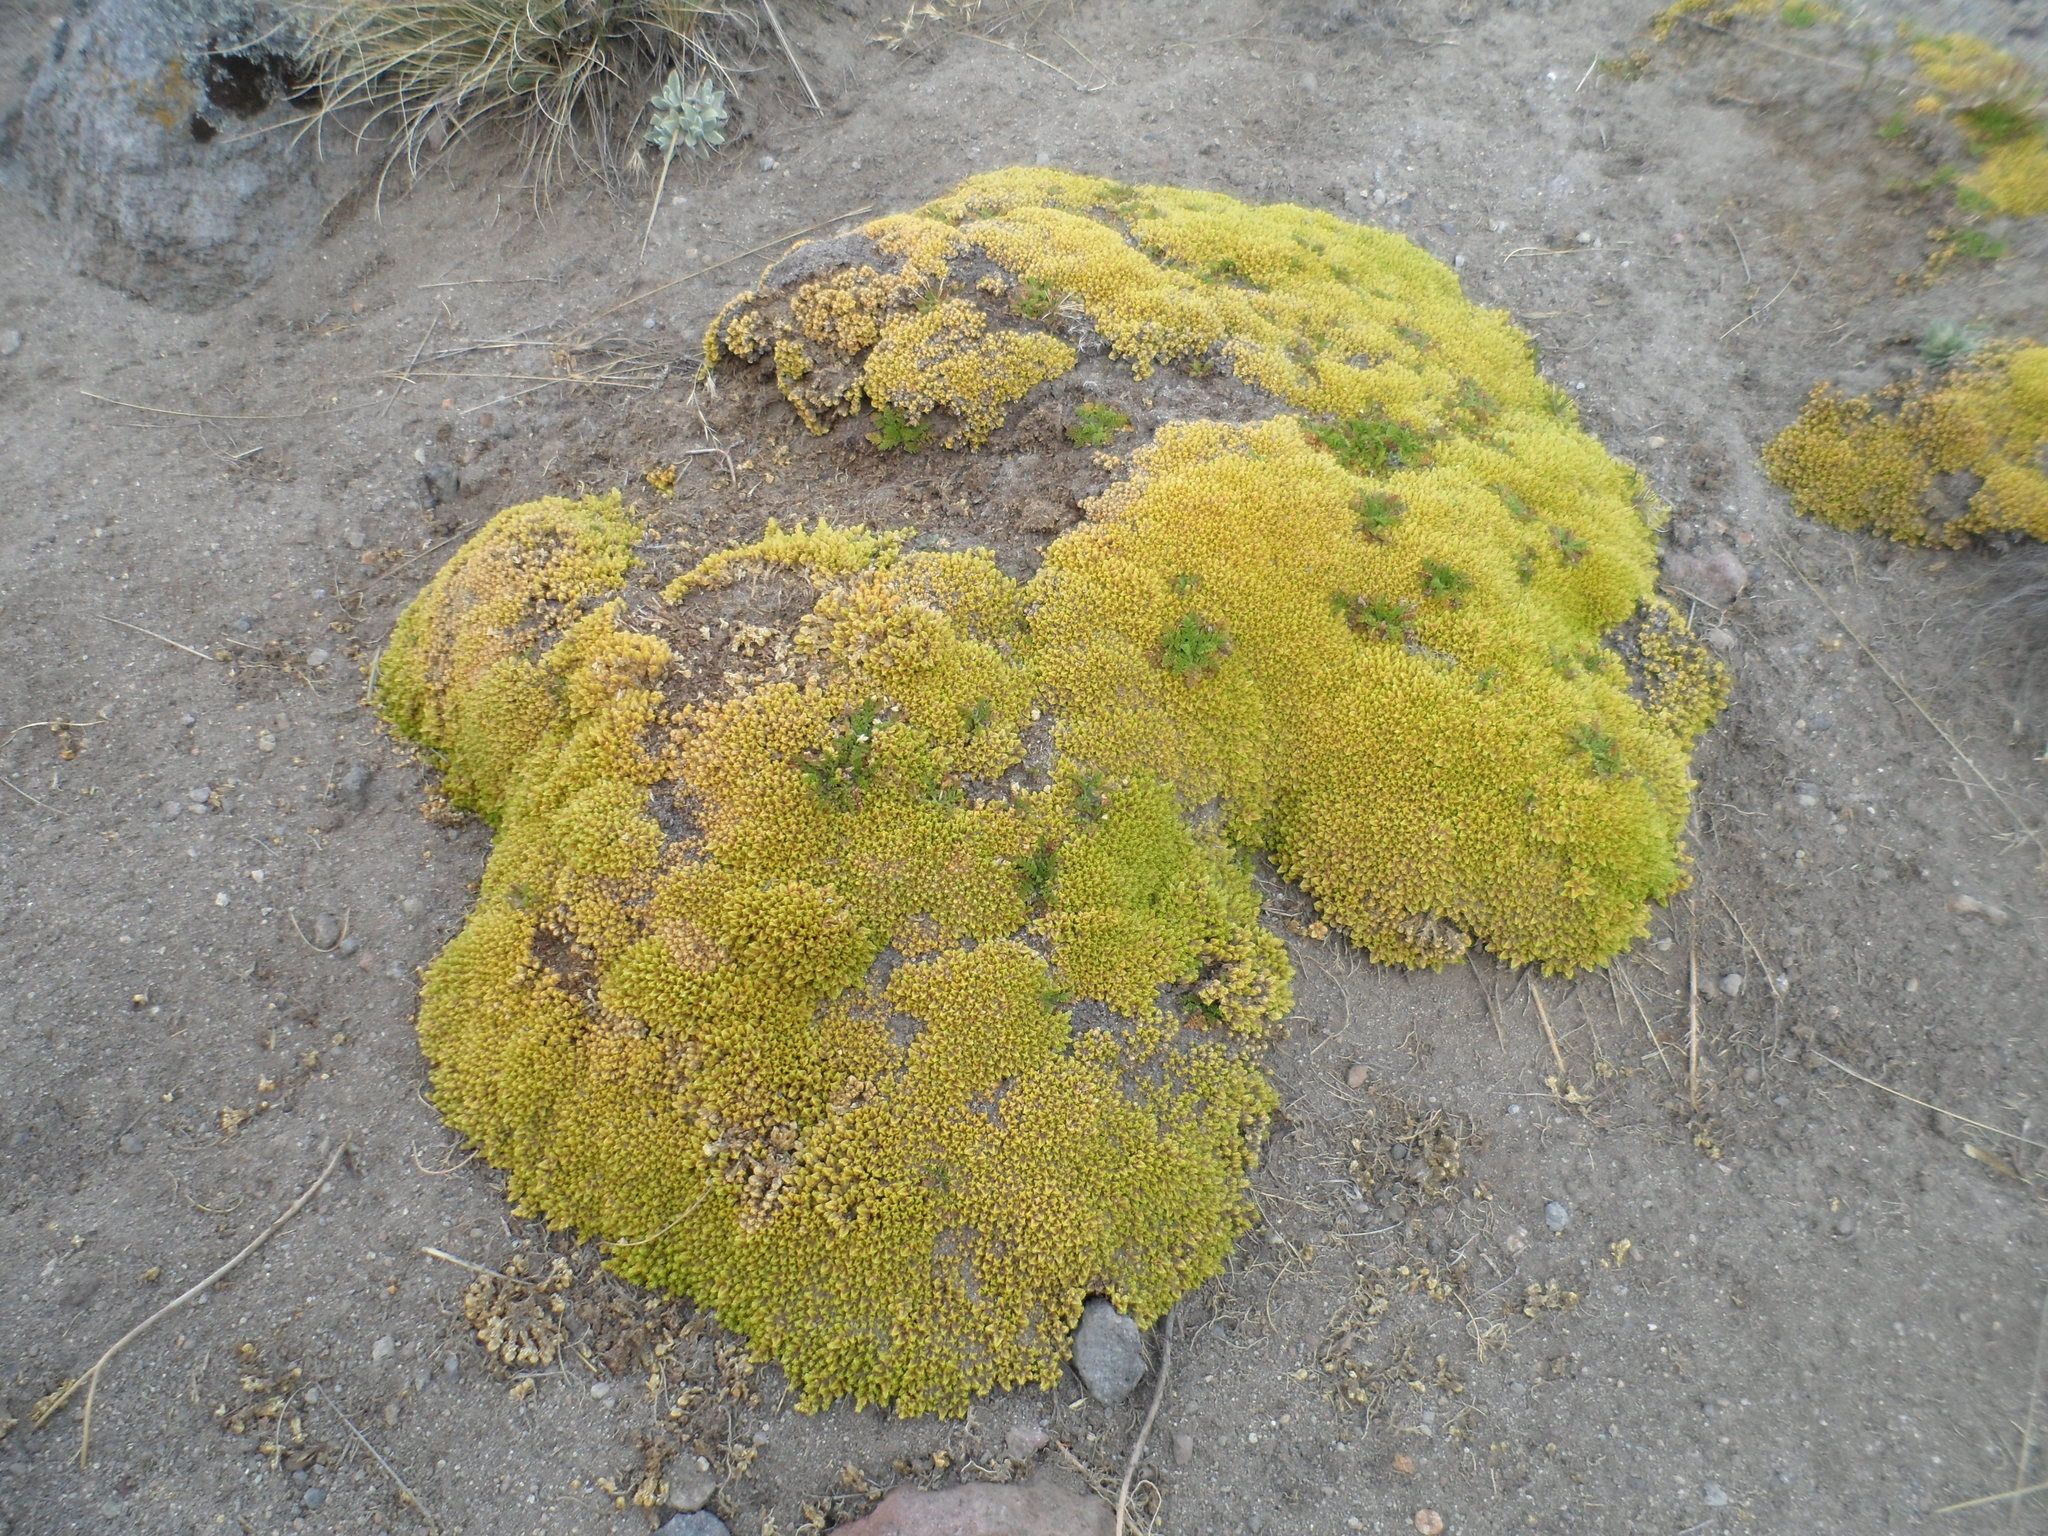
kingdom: Plantae
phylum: Tracheophyta
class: Magnoliopsida
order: Caryophyllales
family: Caryophyllaceae
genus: Arenaria
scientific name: Arenaria bryoides
